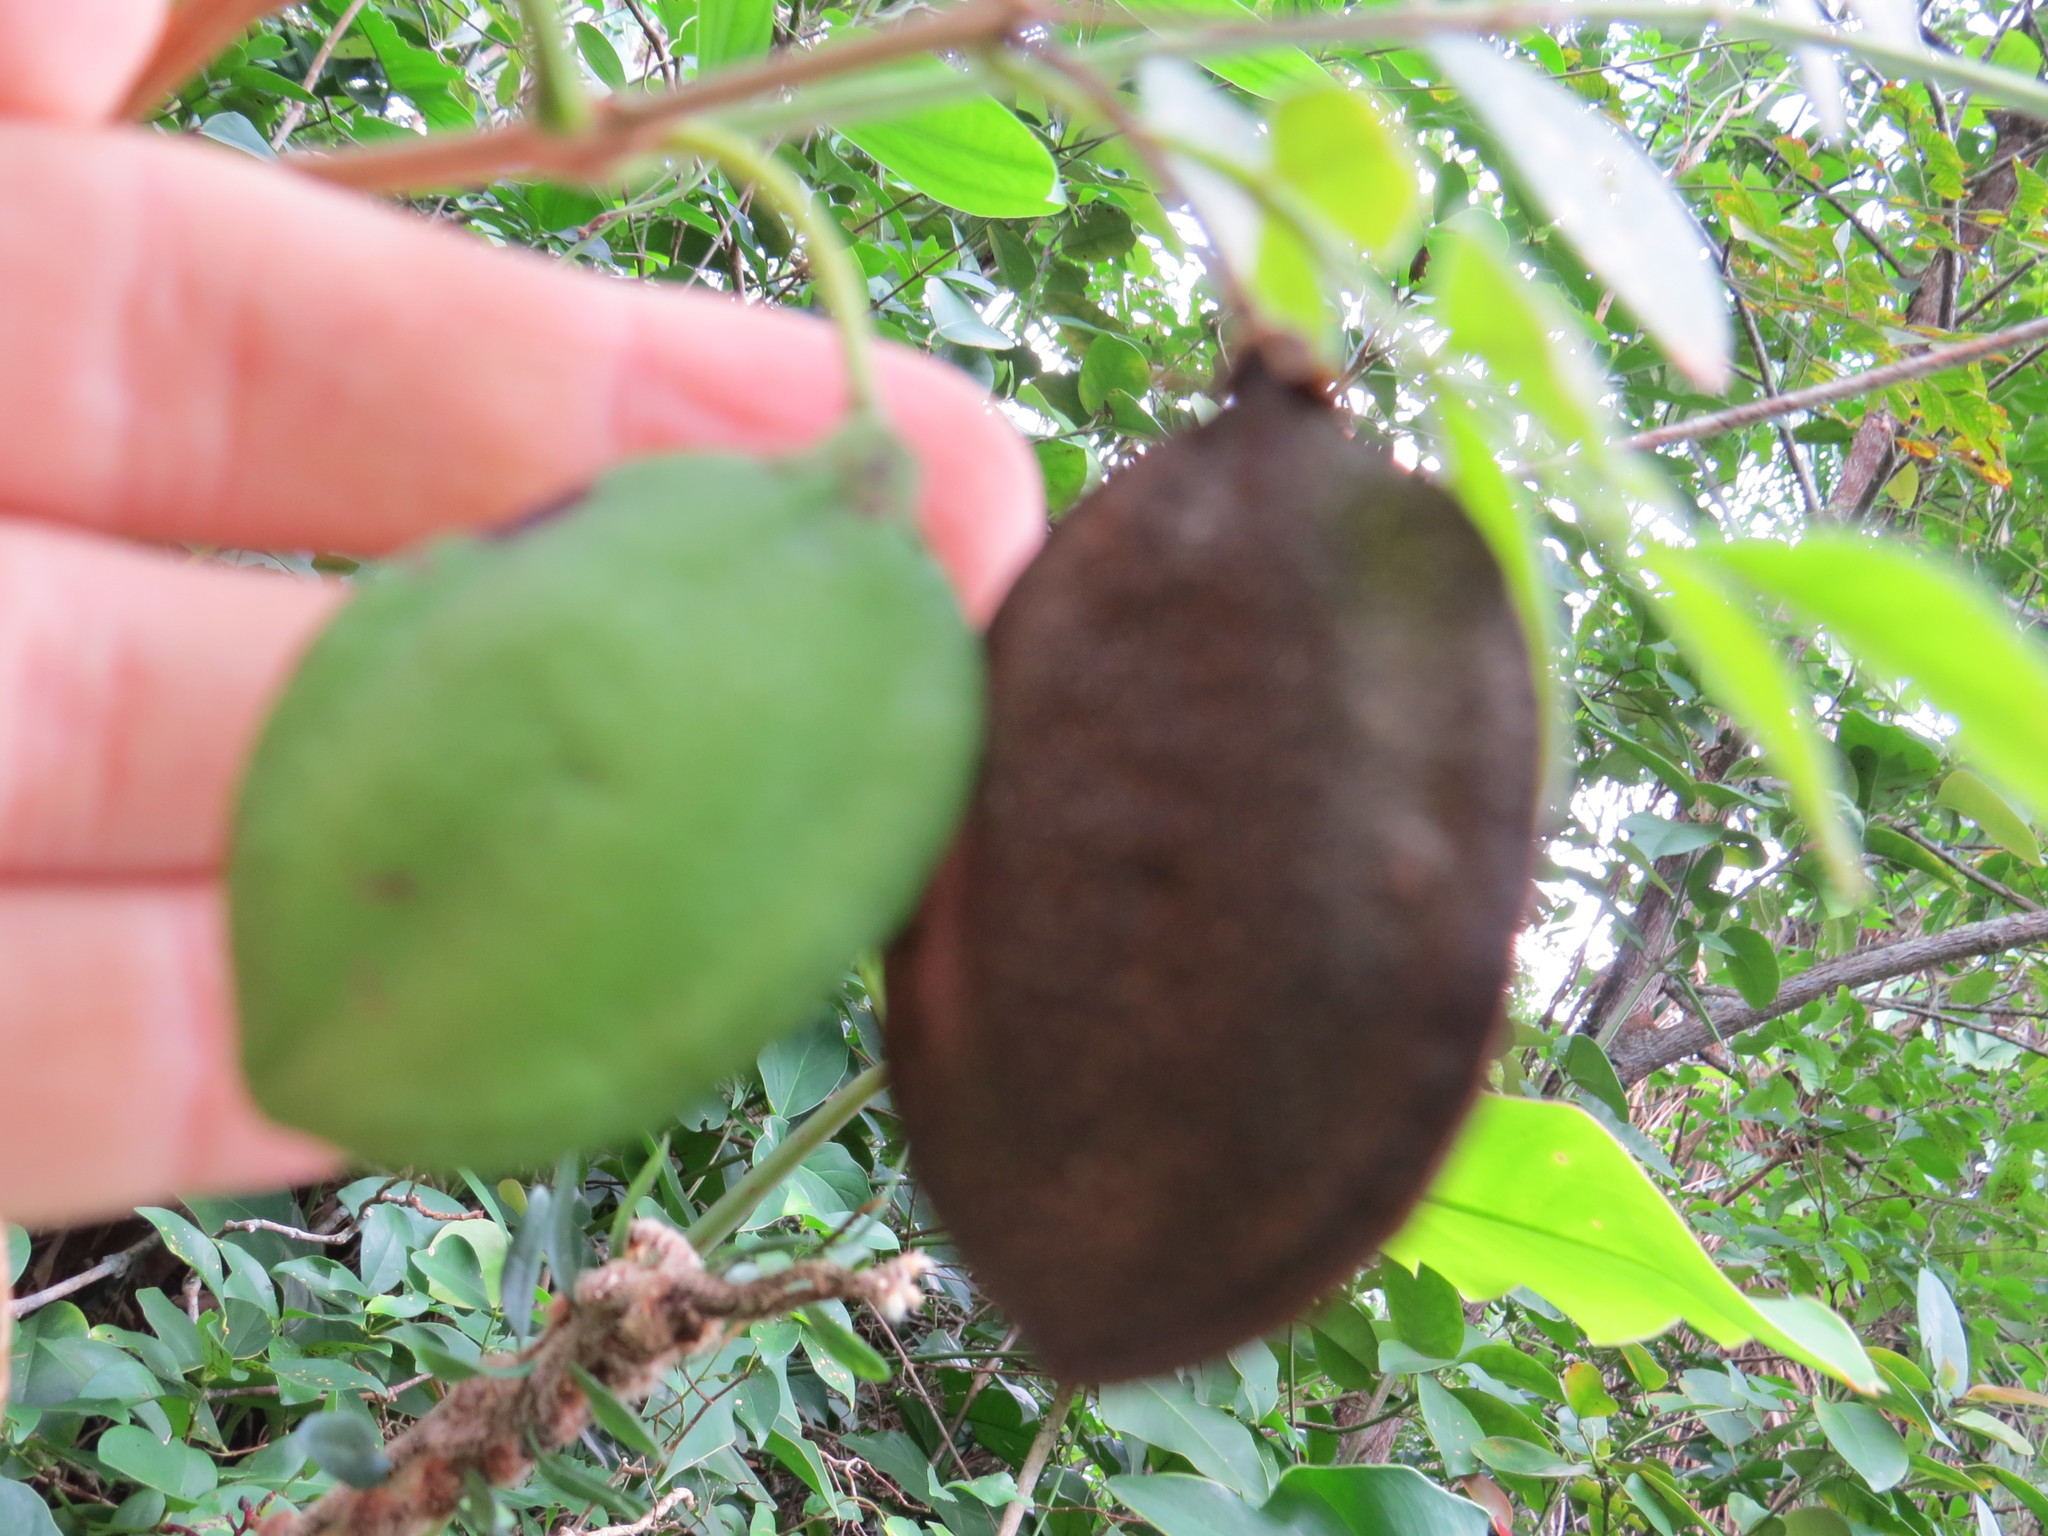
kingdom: Plantae
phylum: Tracheophyta
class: Magnoliopsida
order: Lamiales
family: Bignoniaceae
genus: Jacaranda
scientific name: Jacaranda jasminoides
